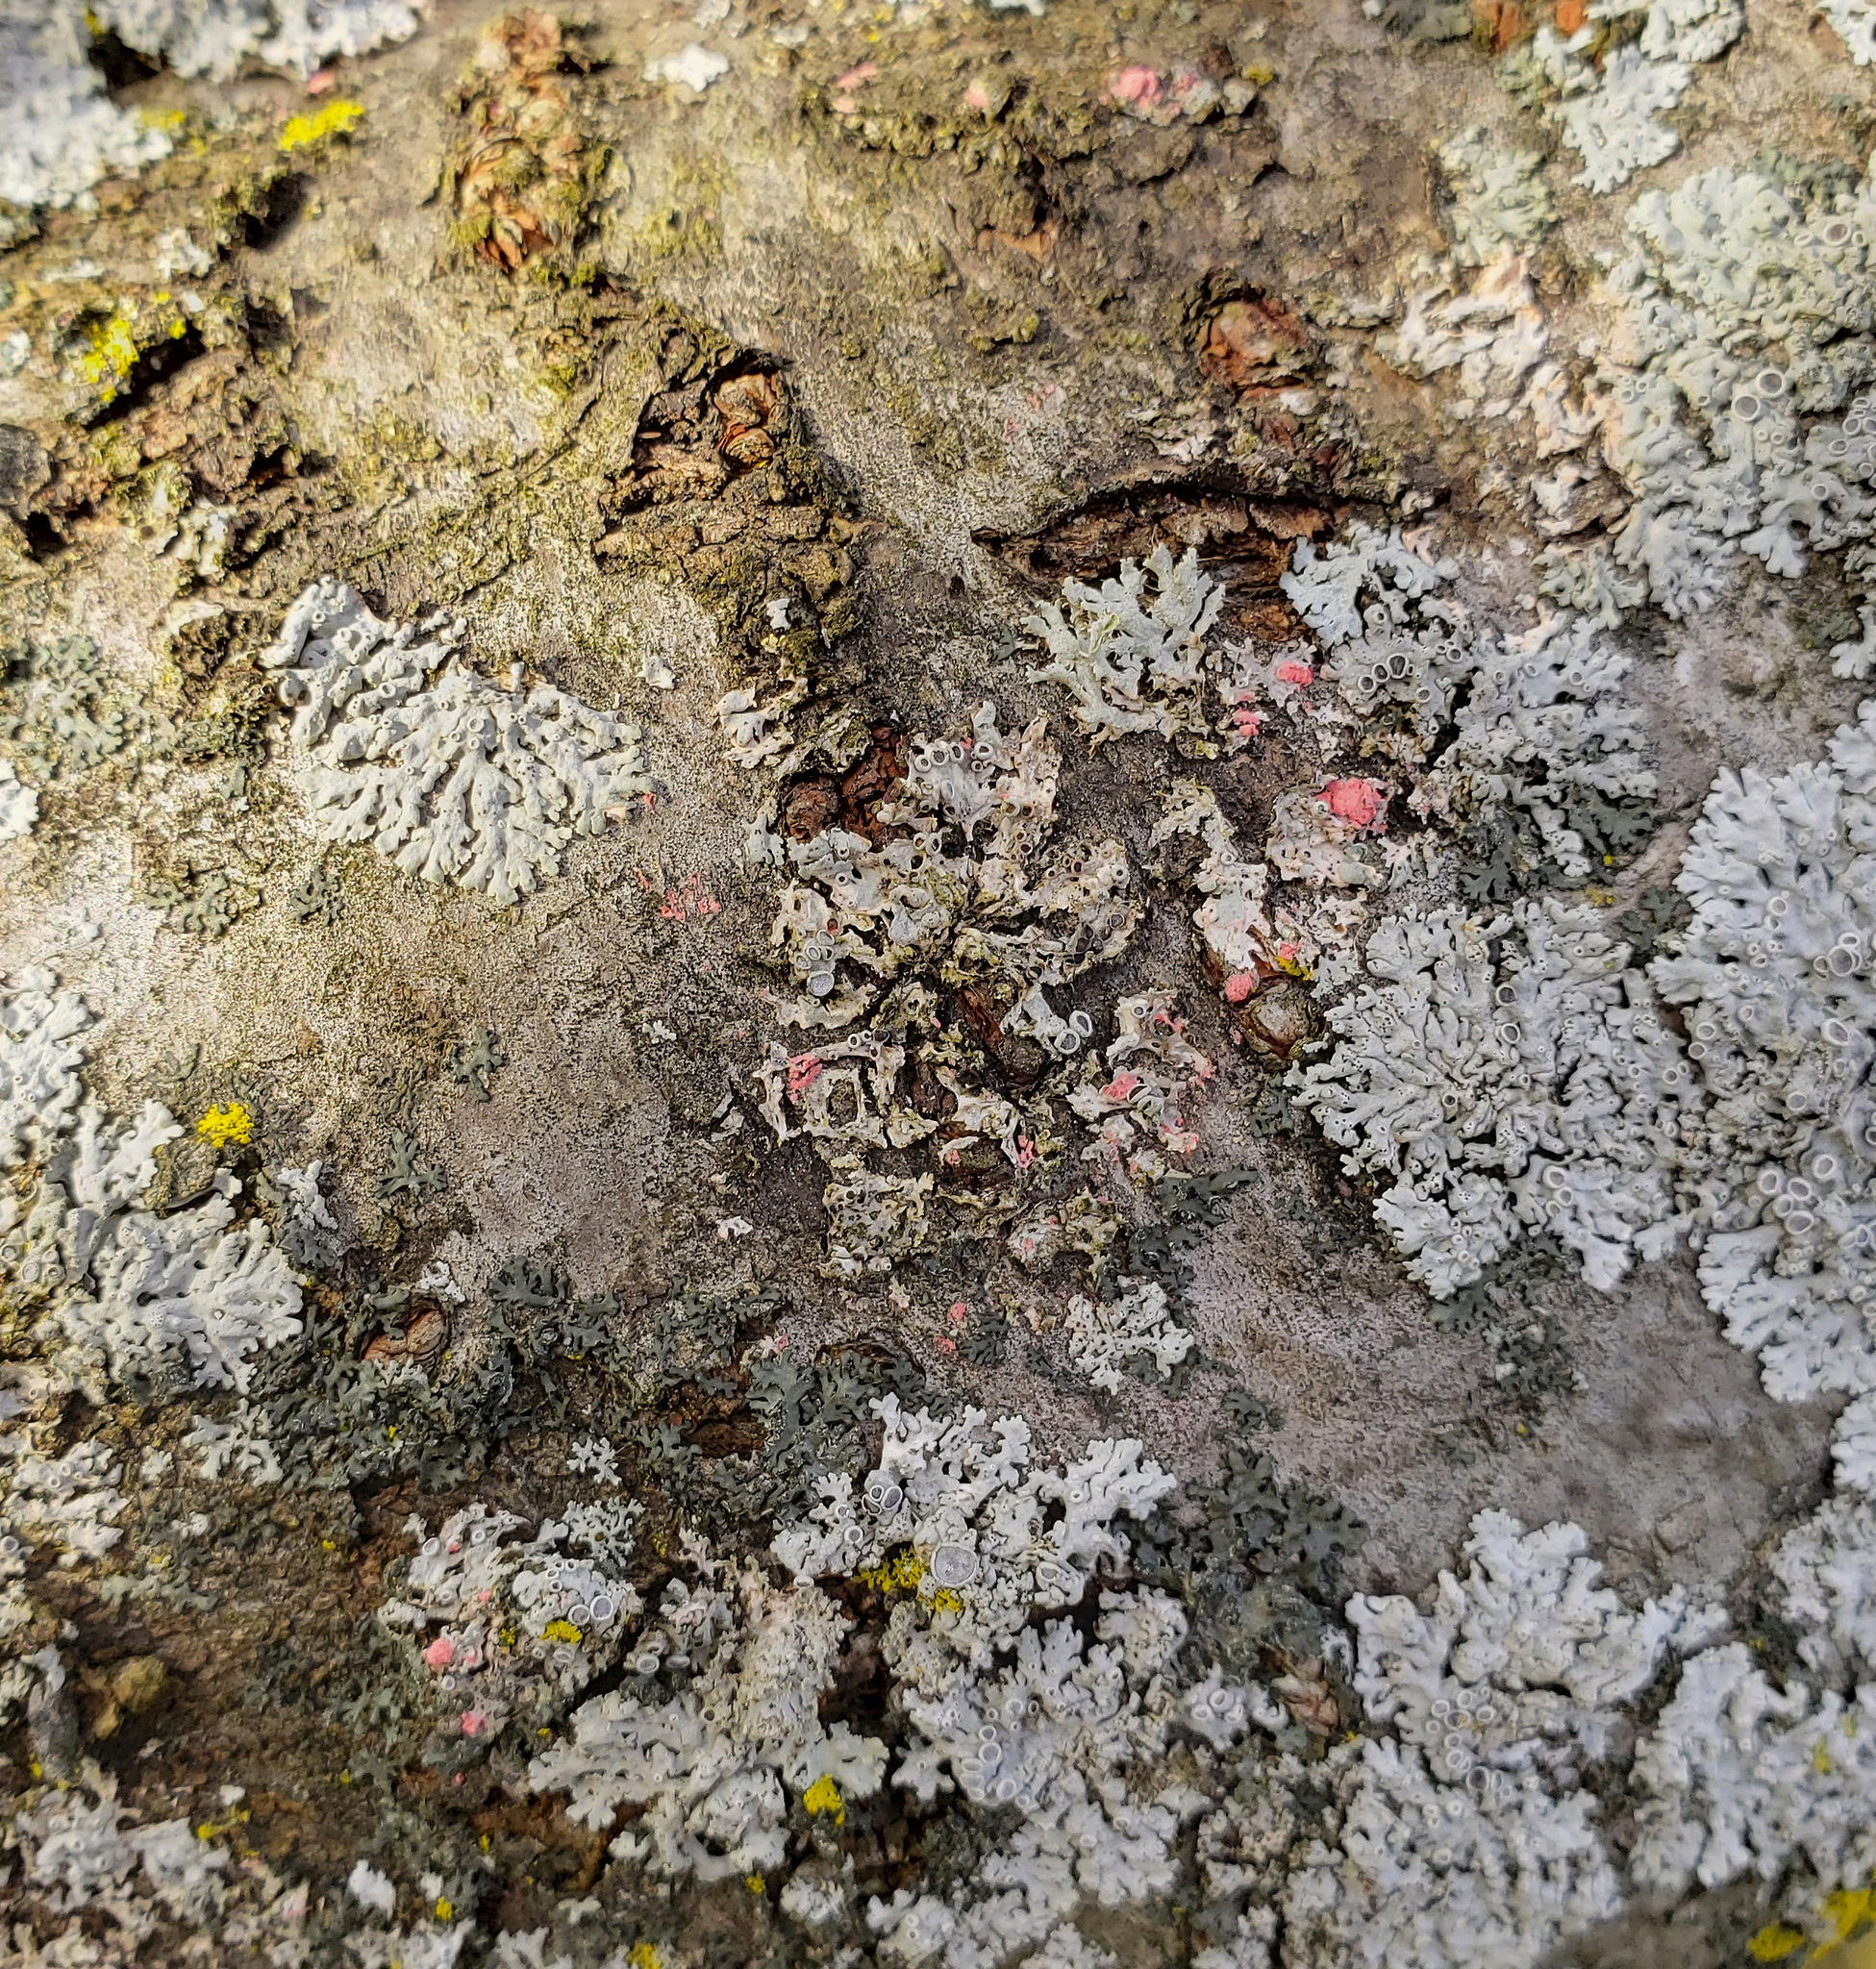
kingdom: Fungi
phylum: Ascomycota
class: Sordariomycetes
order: Hypocreales
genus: Illosporiopsis
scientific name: Illosporiopsis christiansenii
